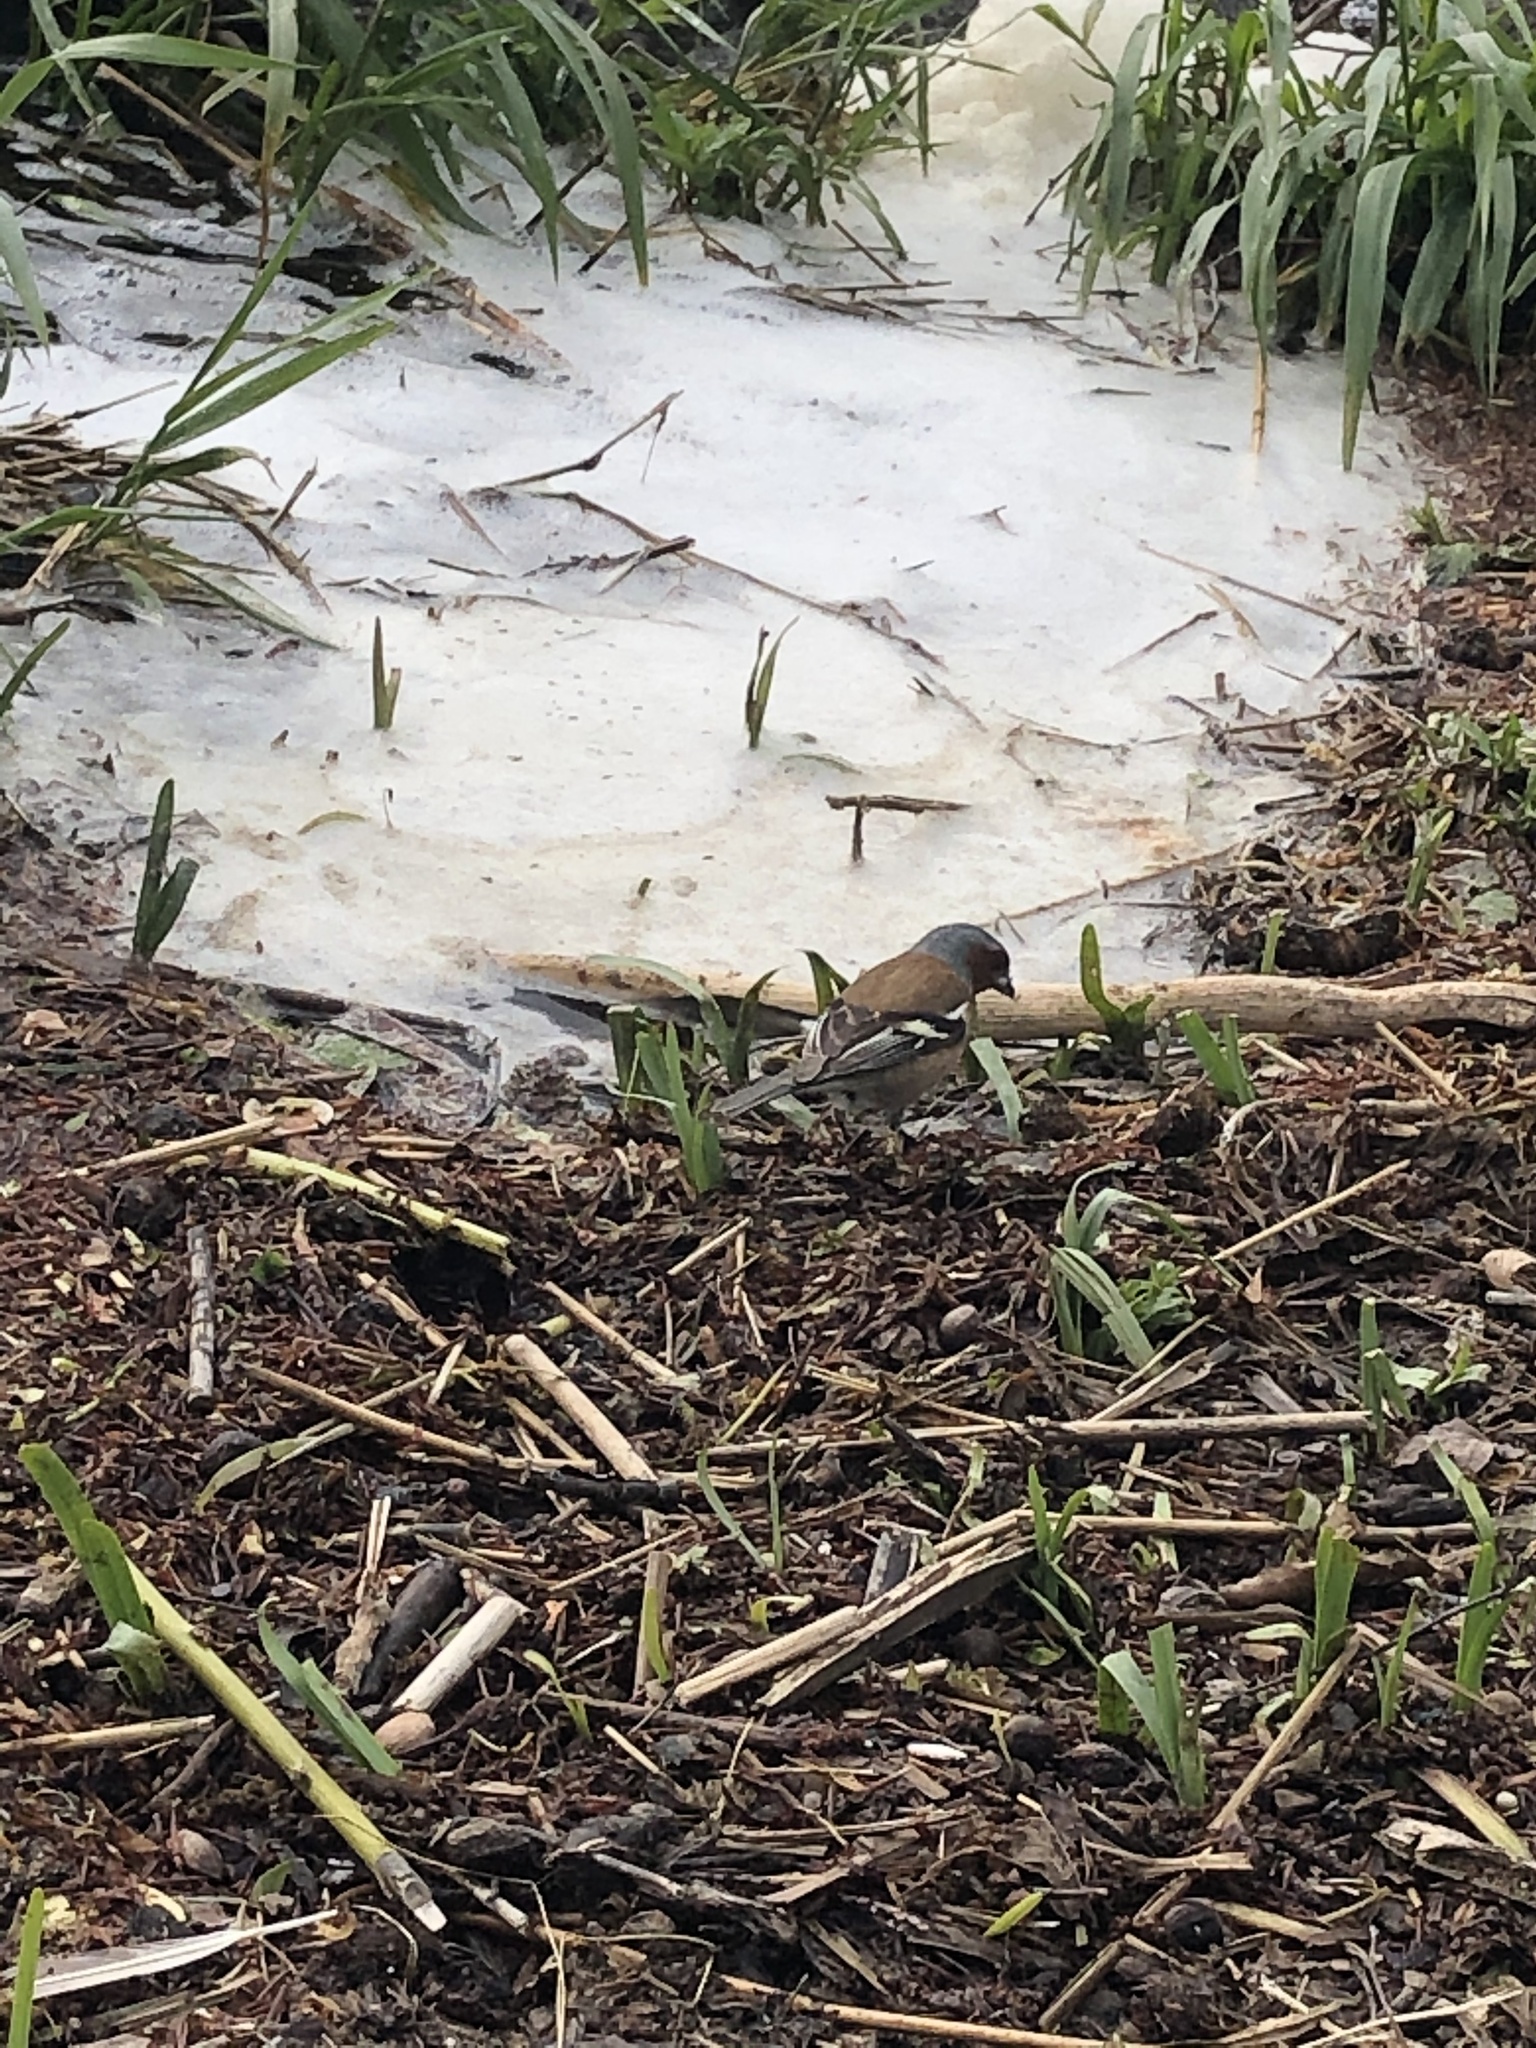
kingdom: Animalia
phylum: Chordata
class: Aves
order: Passeriformes
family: Fringillidae
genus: Fringilla
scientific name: Fringilla coelebs
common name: Common chaffinch
